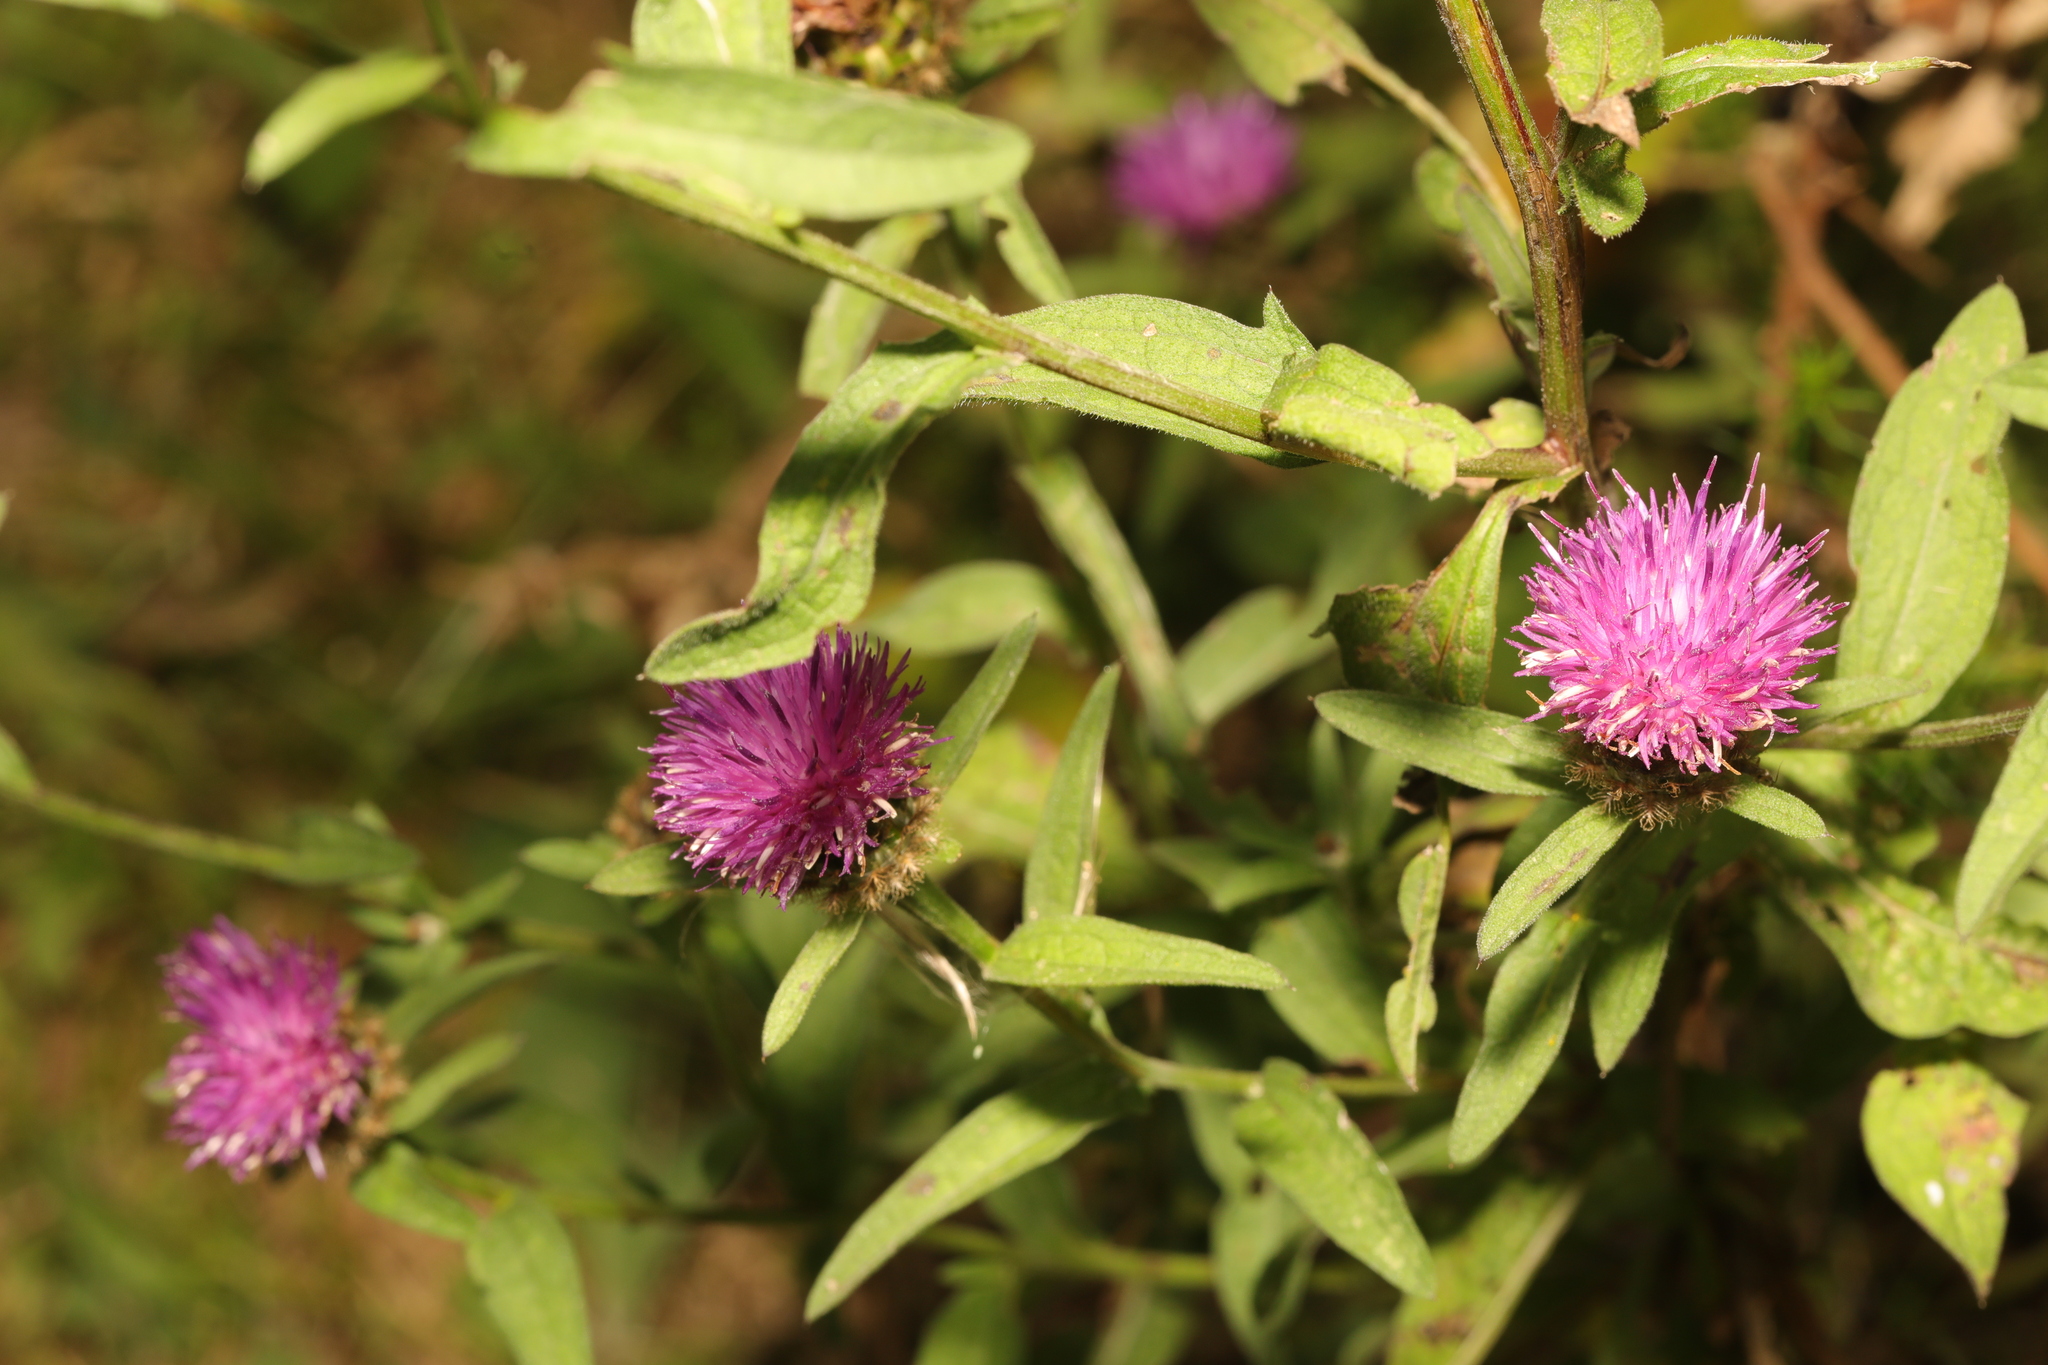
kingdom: Plantae
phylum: Tracheophyta
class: Magnoliopsida
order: Asterales
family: Asteraceae
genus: Centaurea
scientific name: Centaurea nigra
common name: Lesser knapweed
